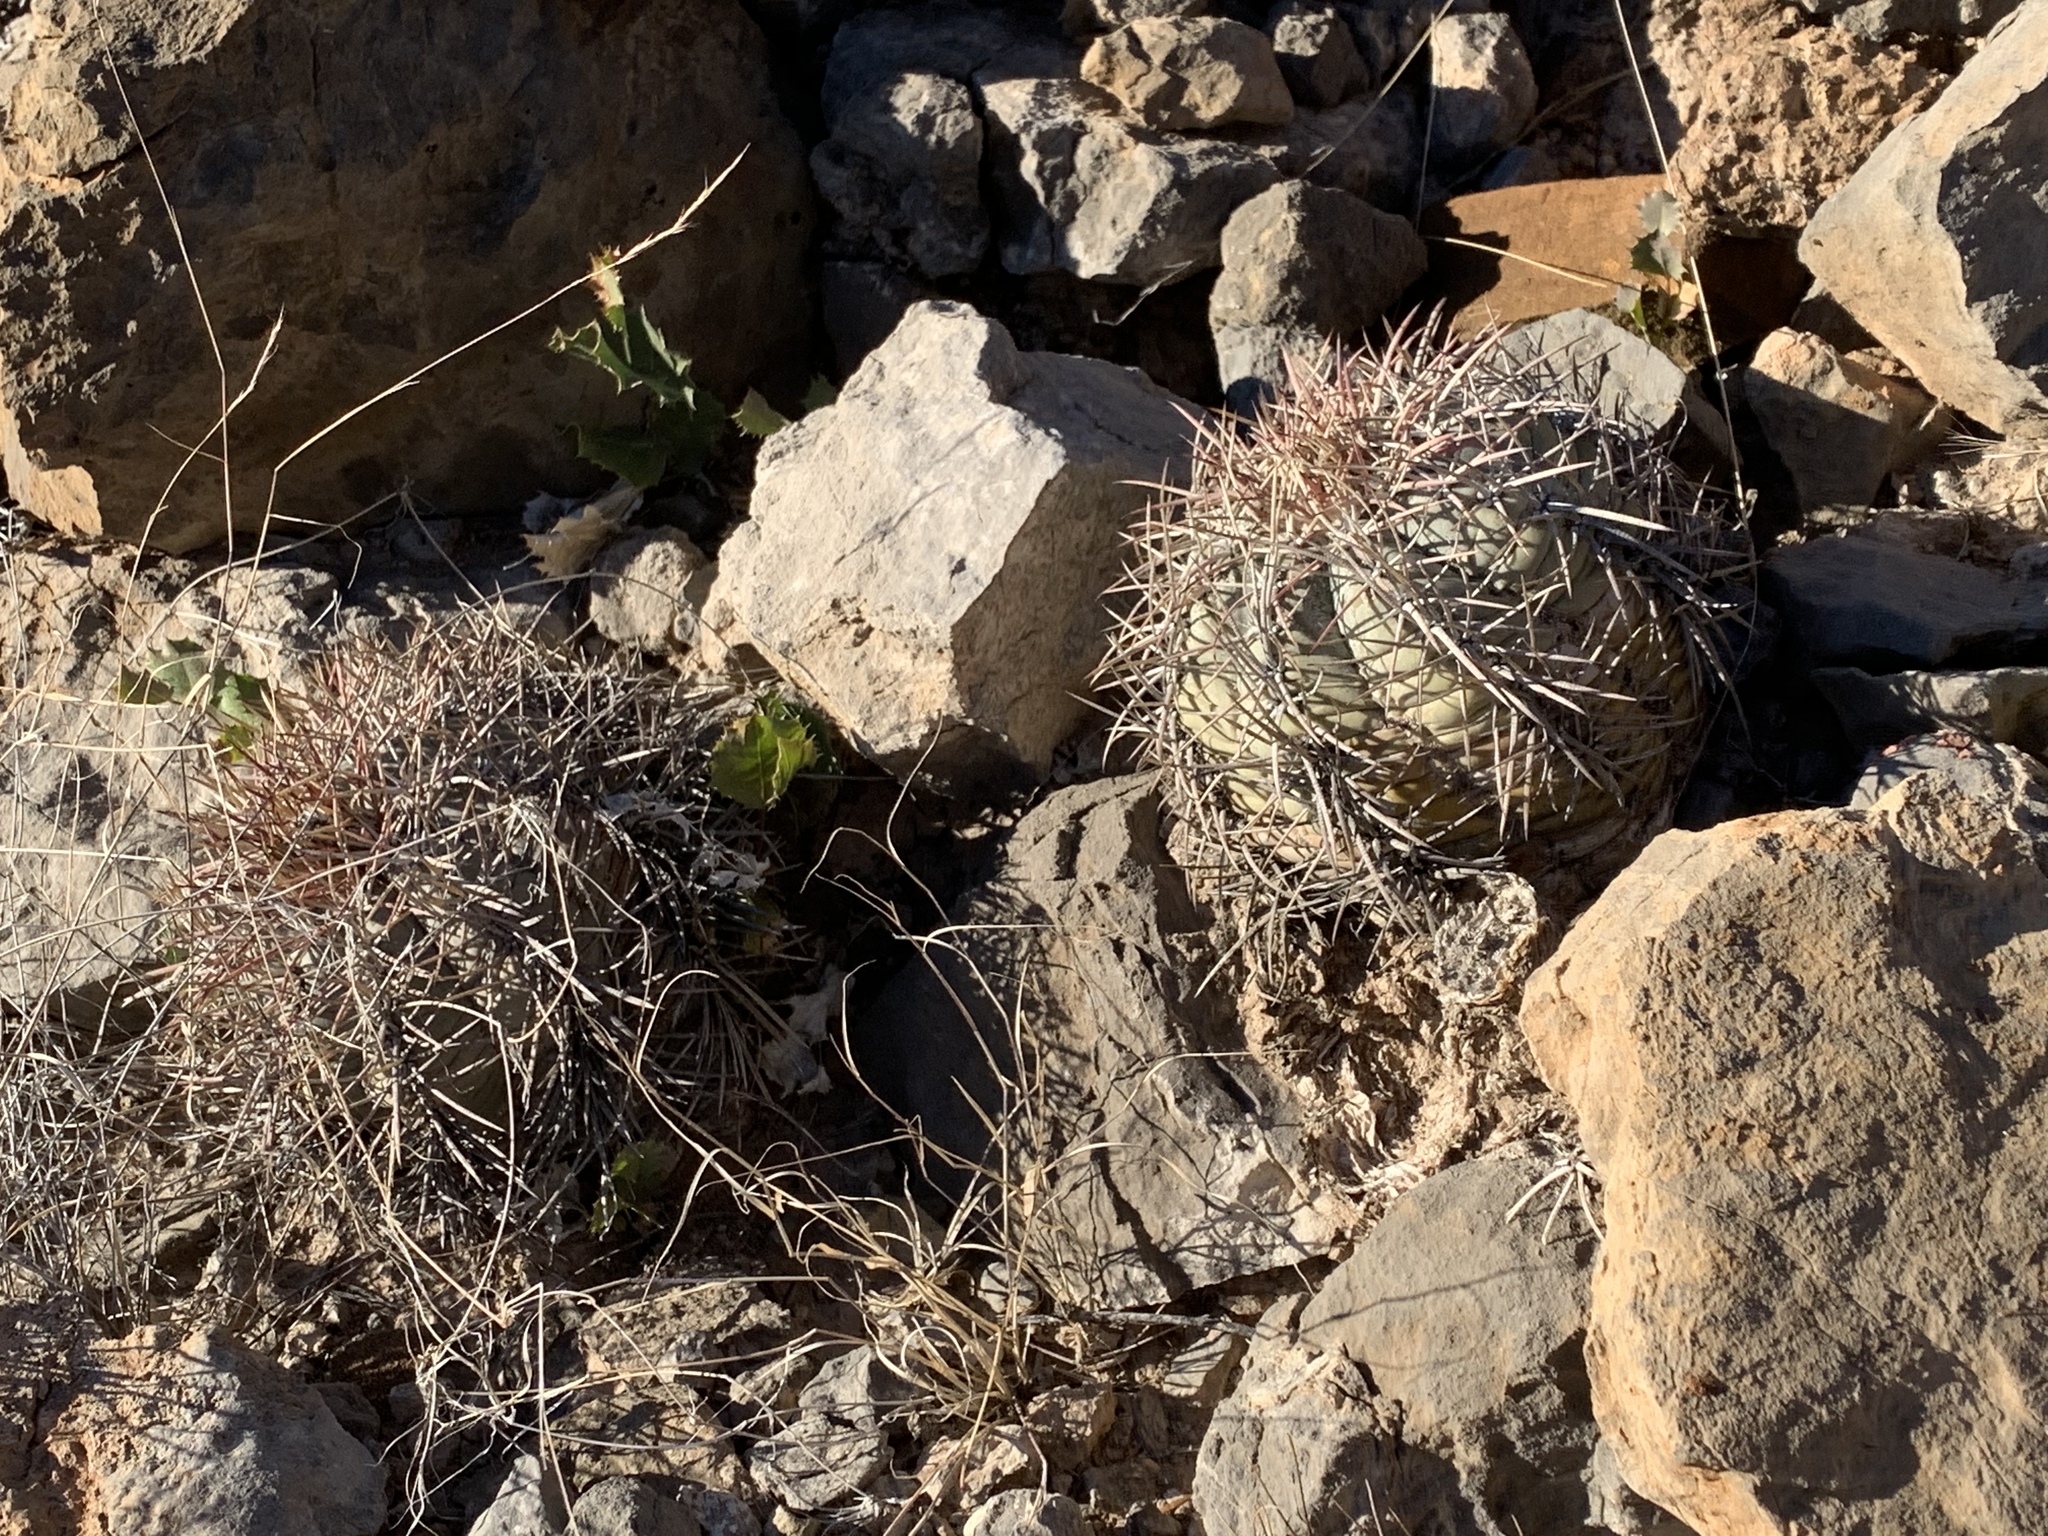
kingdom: Plantae
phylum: Tracheophyta
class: Magnoliopsida
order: Caryophyllales
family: Cactaceae
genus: Echinocactus
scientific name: Echinocactus horizonthalonius
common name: Devilshead
